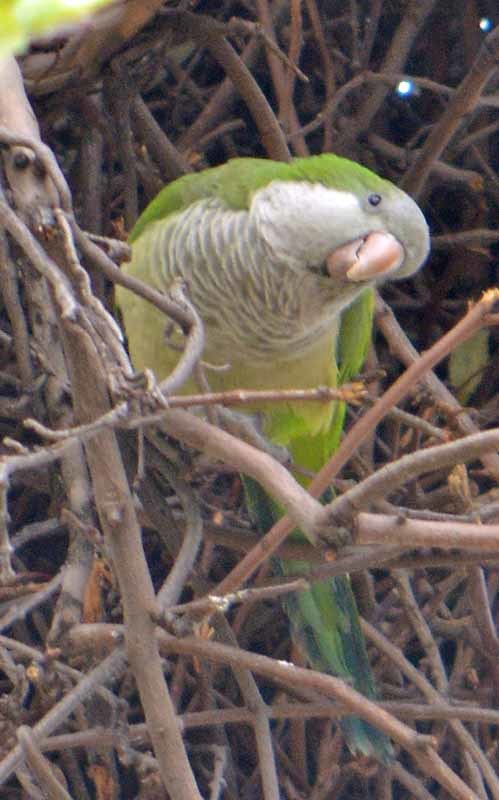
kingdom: Animalia
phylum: Chordata
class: Aves
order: Psittaciformes
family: Psittacidae
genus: Myiopsitta
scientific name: Myiopsitta monachus
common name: Monk parakeet
